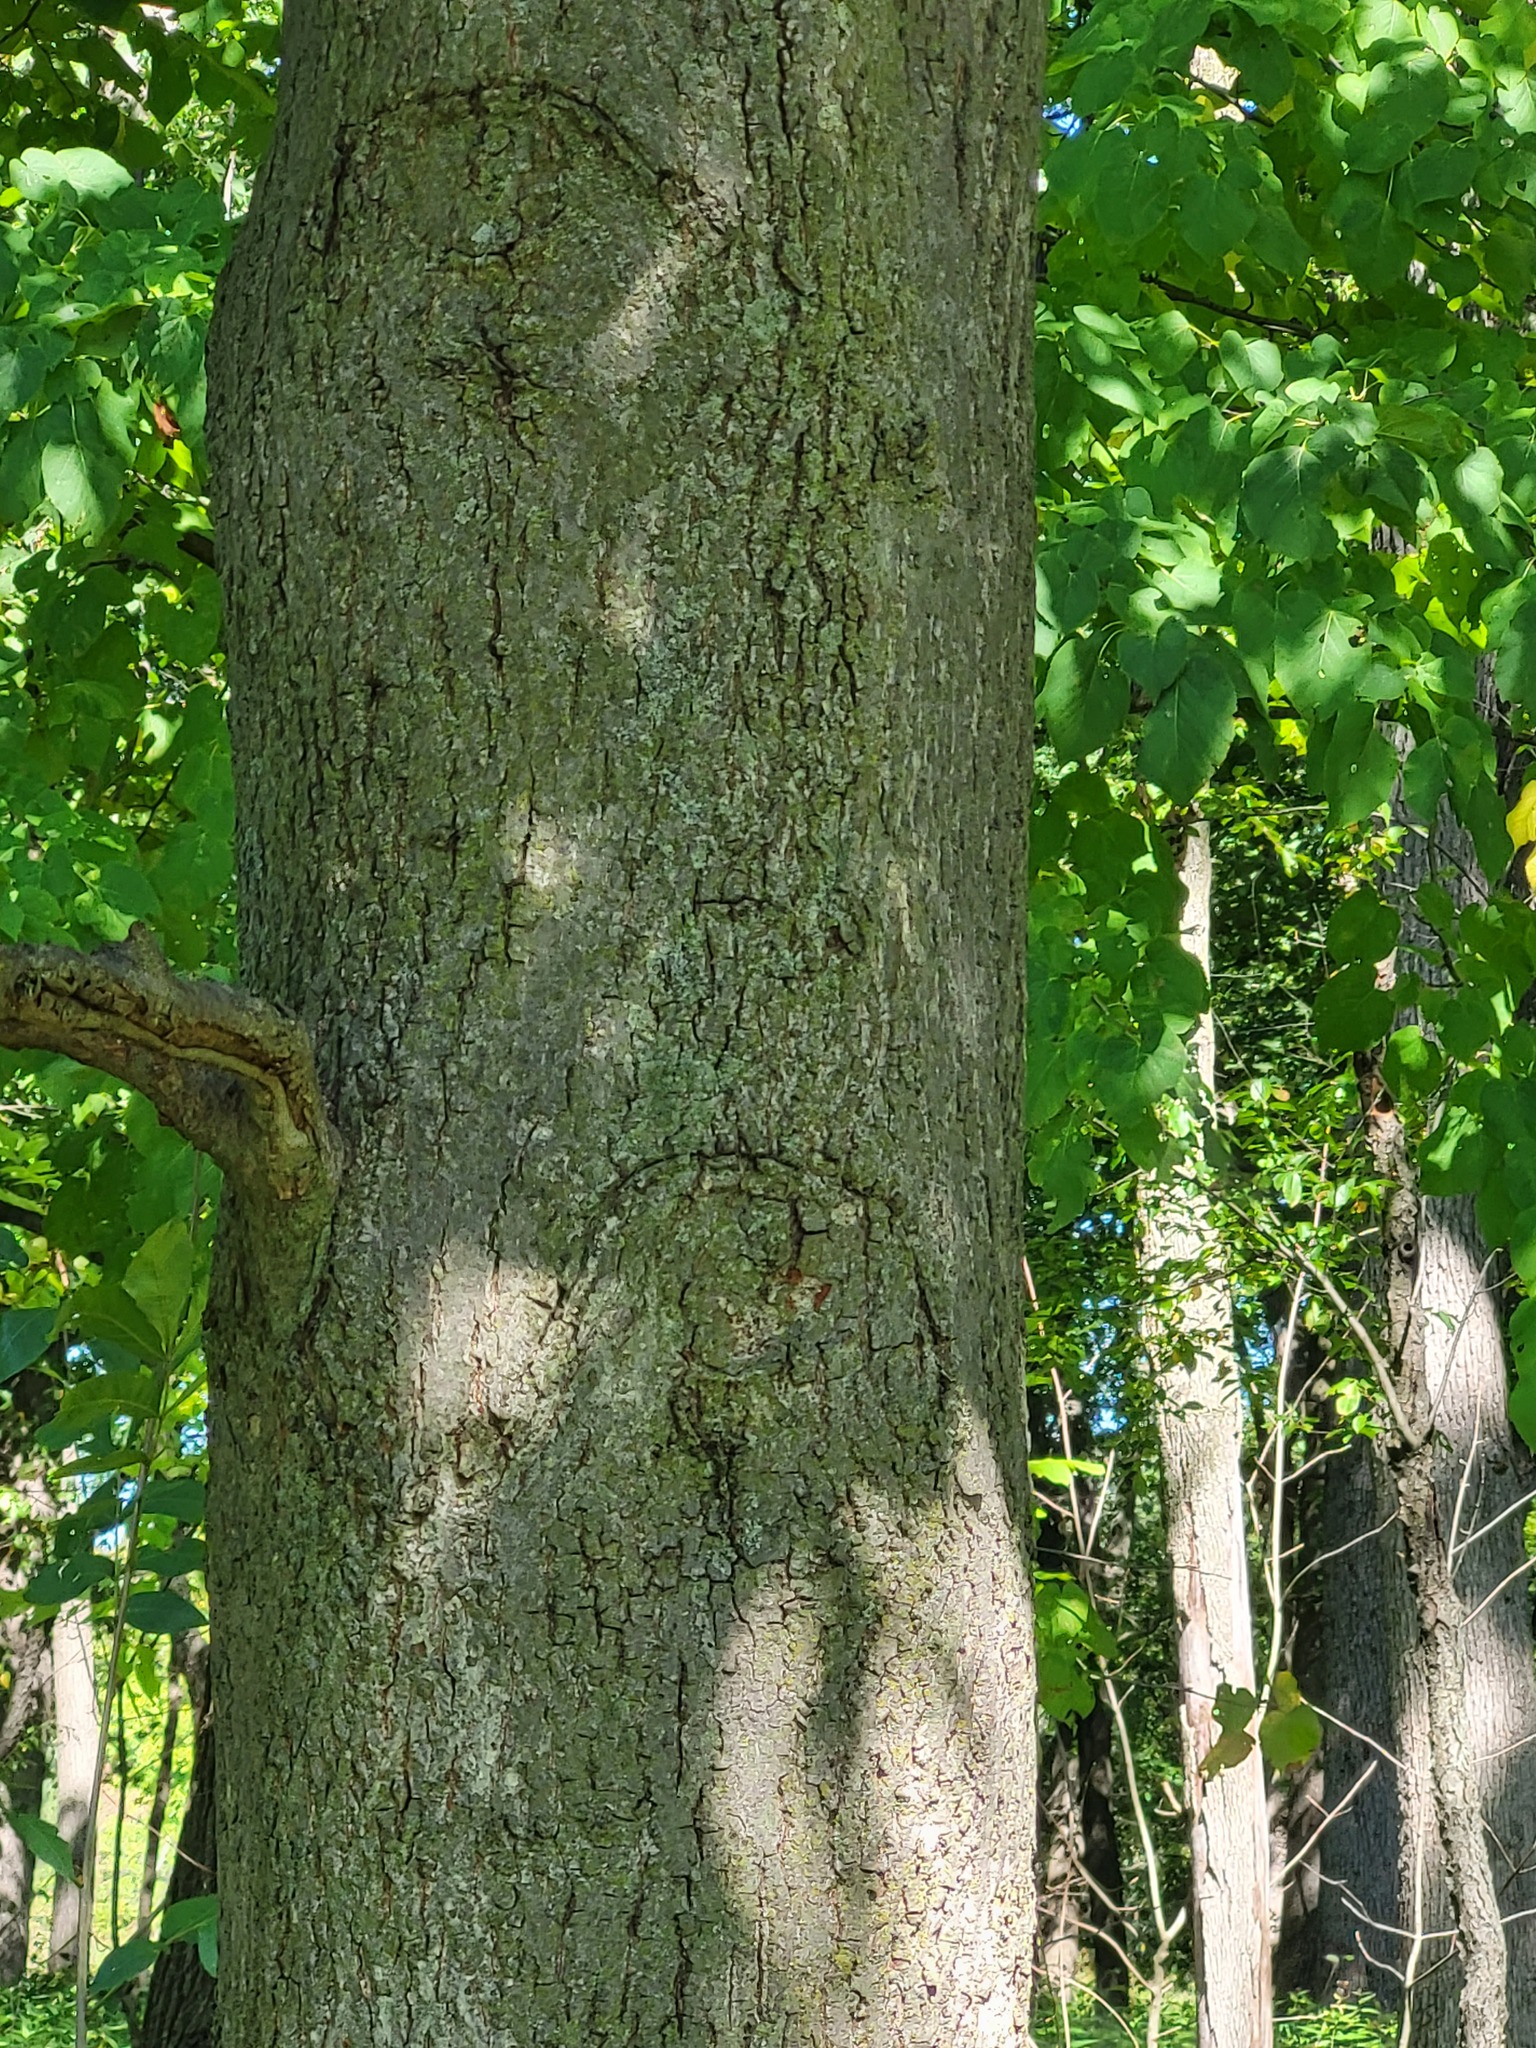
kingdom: Plantae
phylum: Tracheophyta
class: Magnoliopsida
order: Fagales
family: Juglandaceae
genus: Carya
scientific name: Carya cordiformis
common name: Bitternut hickory
